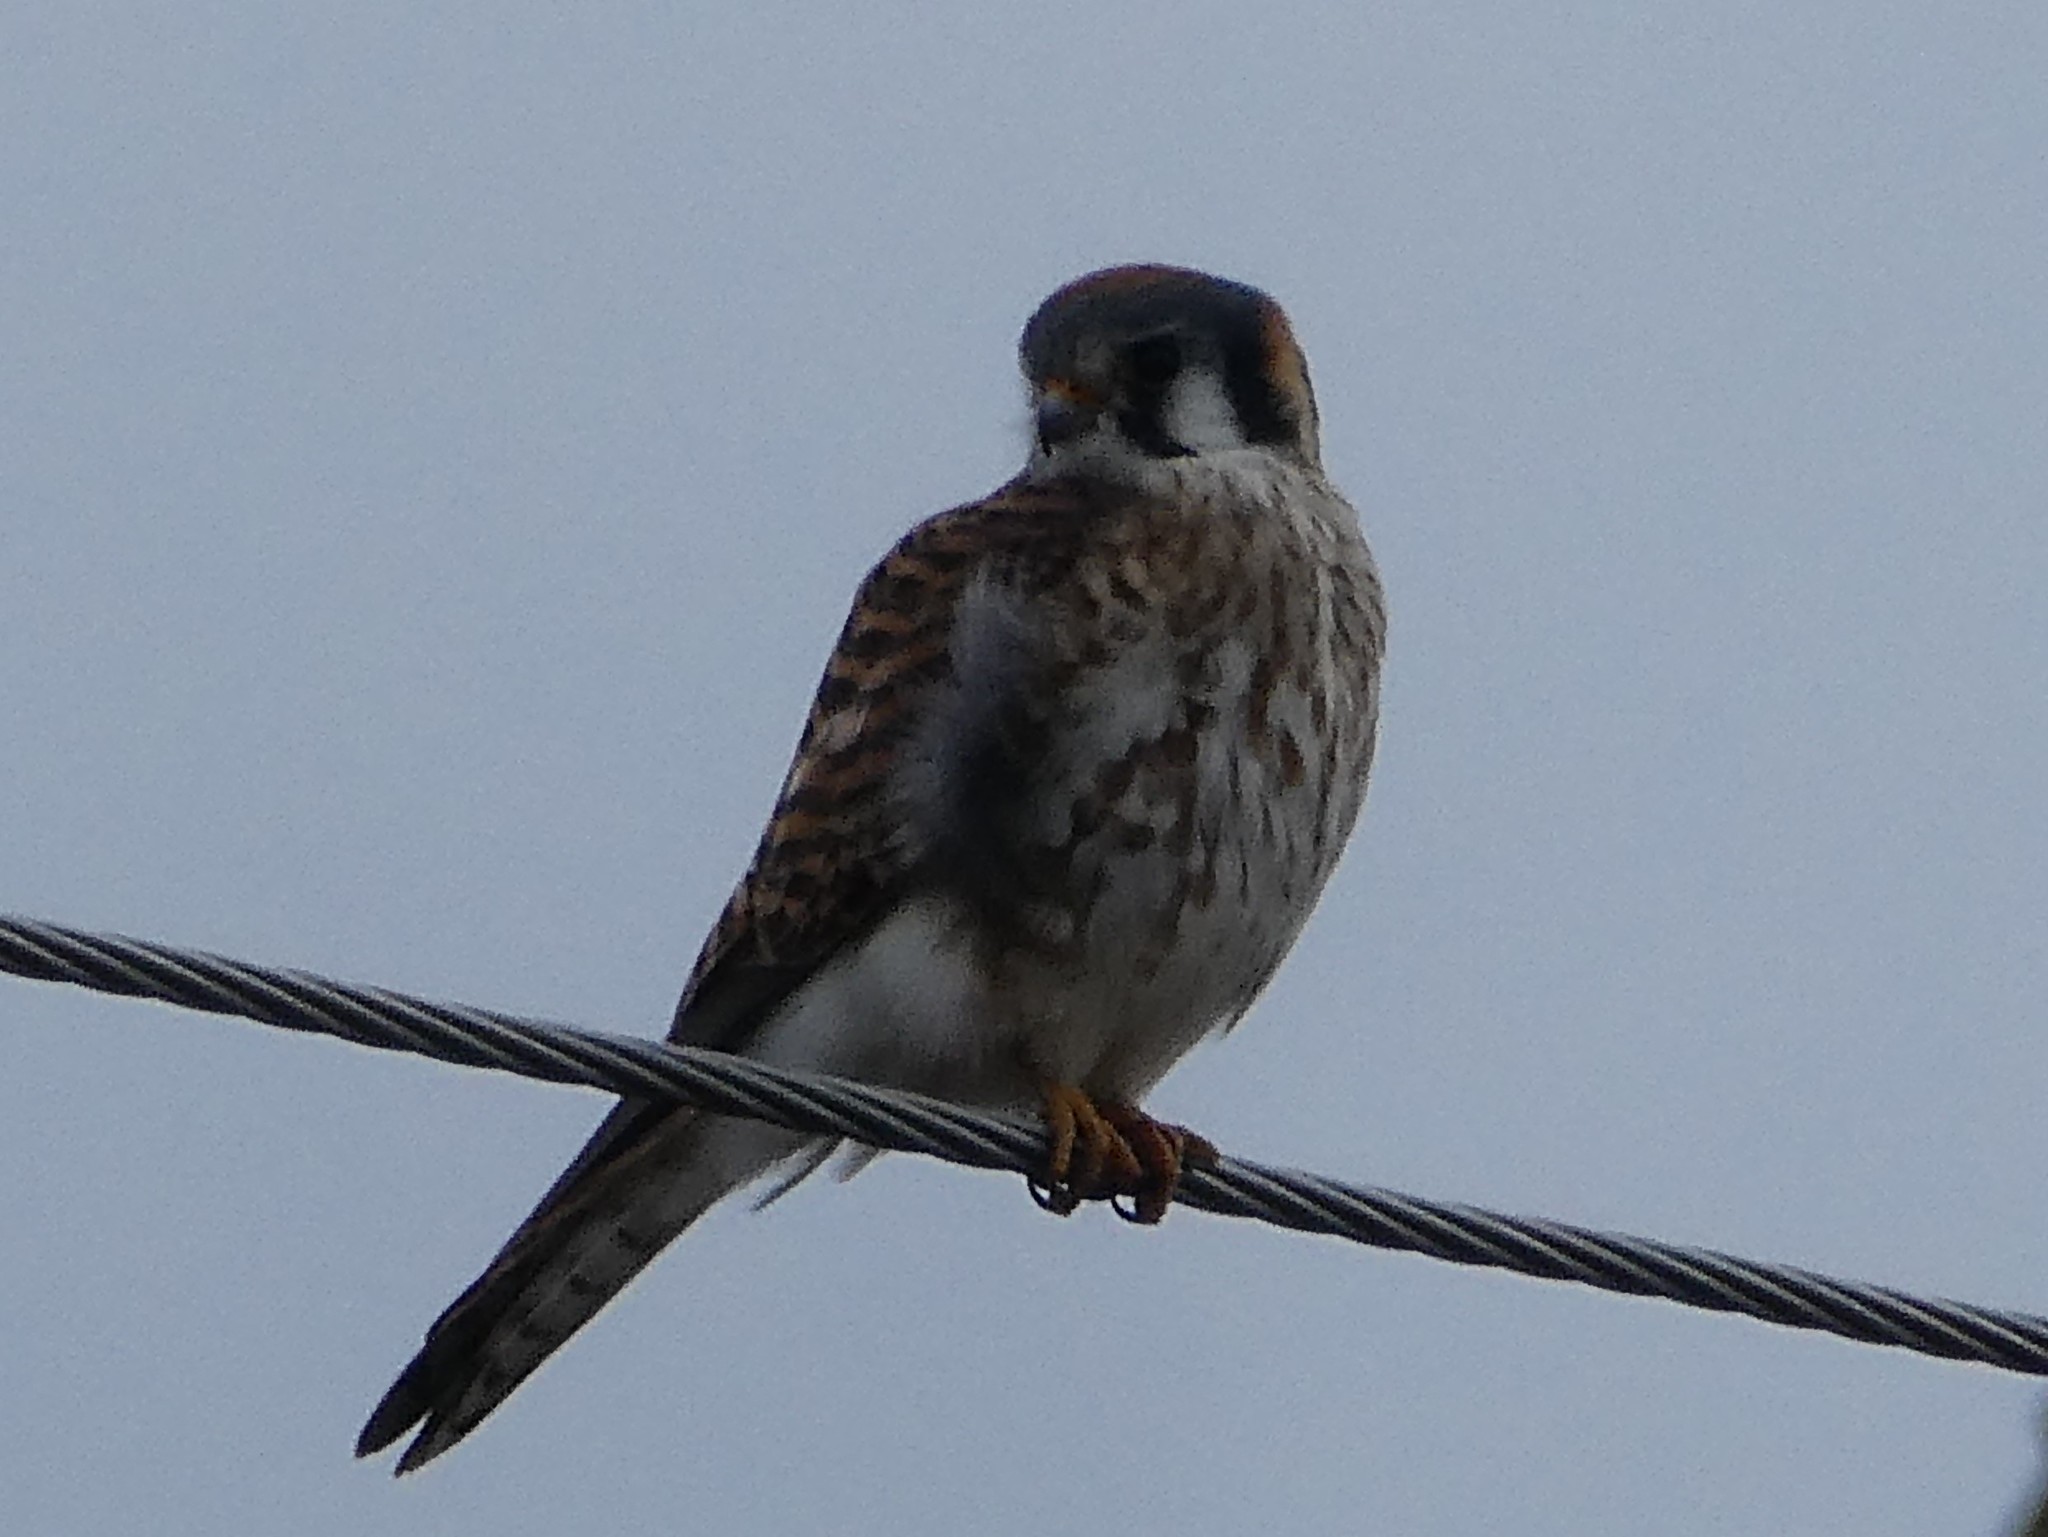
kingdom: Animalia
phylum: Chordata
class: Aves
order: Falconiformes
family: Falconidae
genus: Falco
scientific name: Falco sparverius
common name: American kestrel
